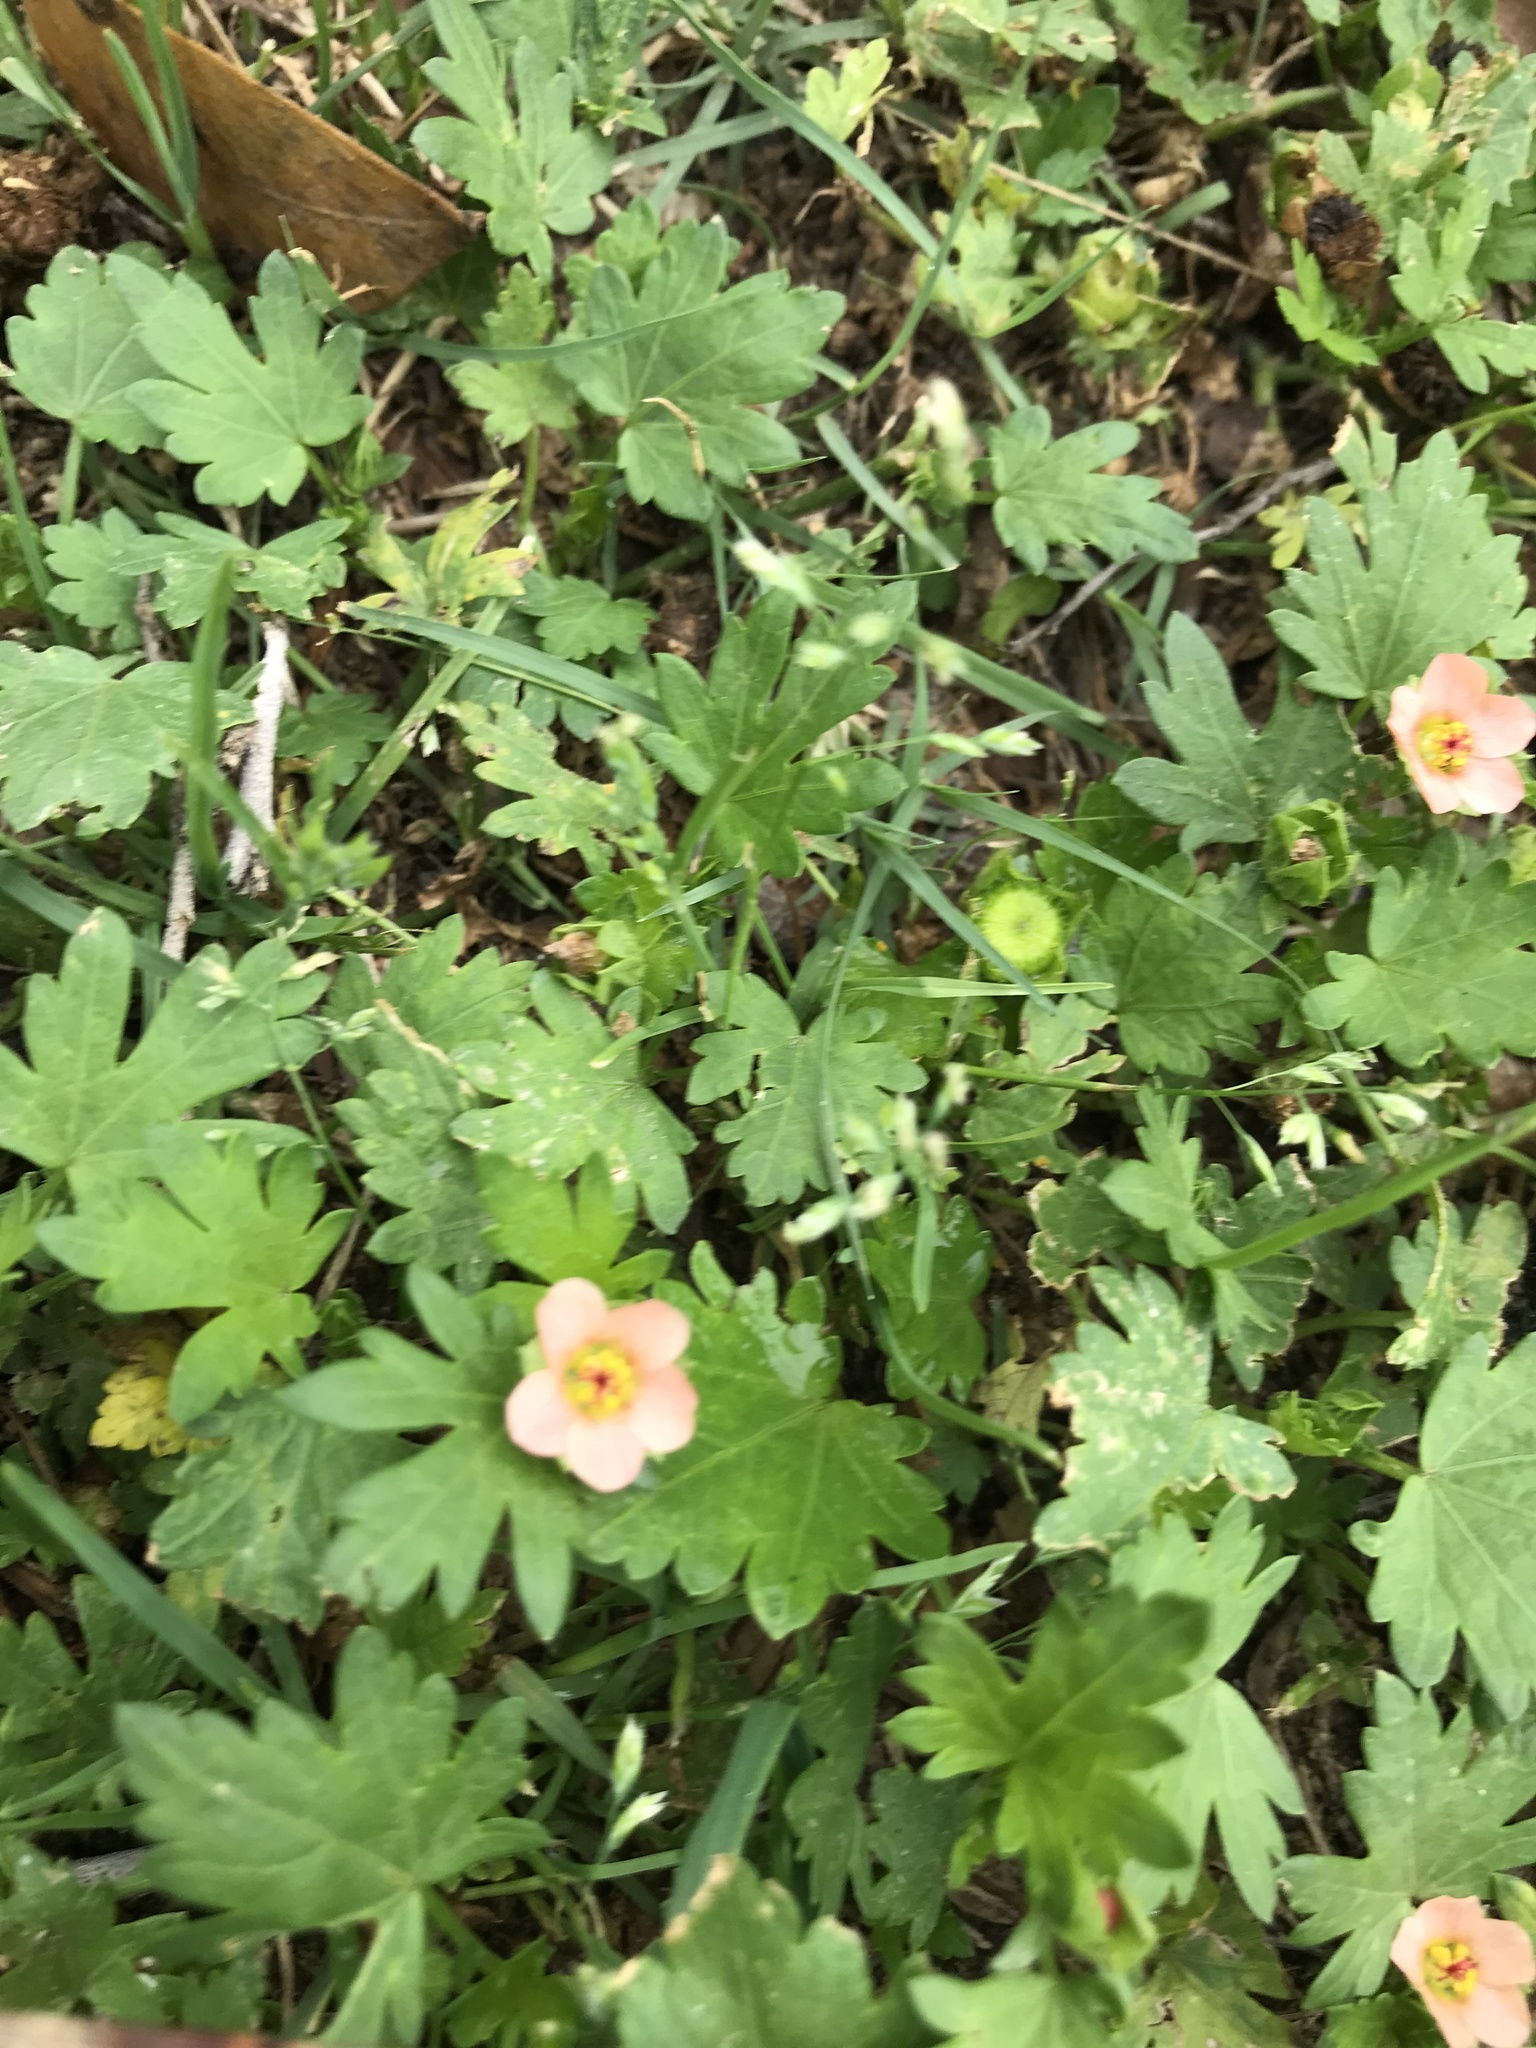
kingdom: Plantae
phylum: Tracheophyta
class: Magnoliopsida
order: Malvales
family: Malvaceae
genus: Modiola
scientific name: Modiola caroliniana
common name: Carolina bristlemallow
